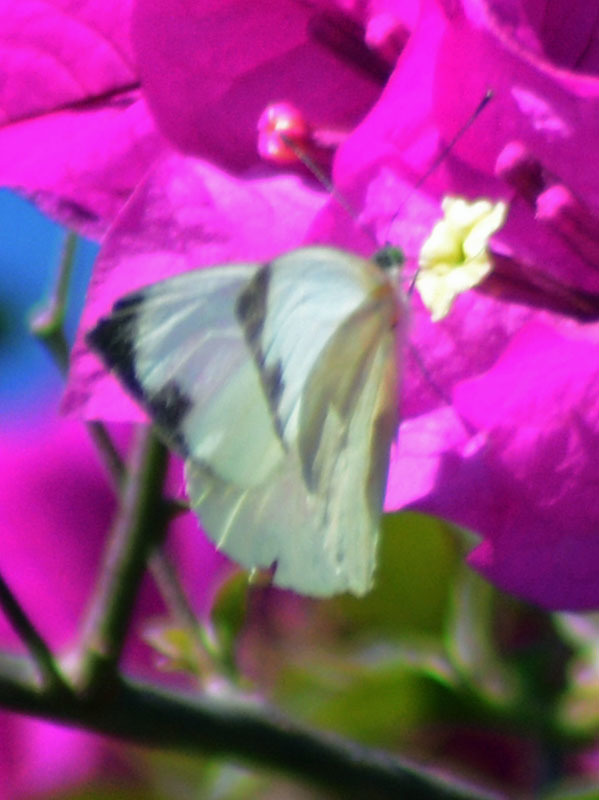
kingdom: Animalia
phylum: Arthropoda
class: Insecta
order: Lepidoptera
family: Pieridae
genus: Leptophobia
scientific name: Leptophobia aripa
